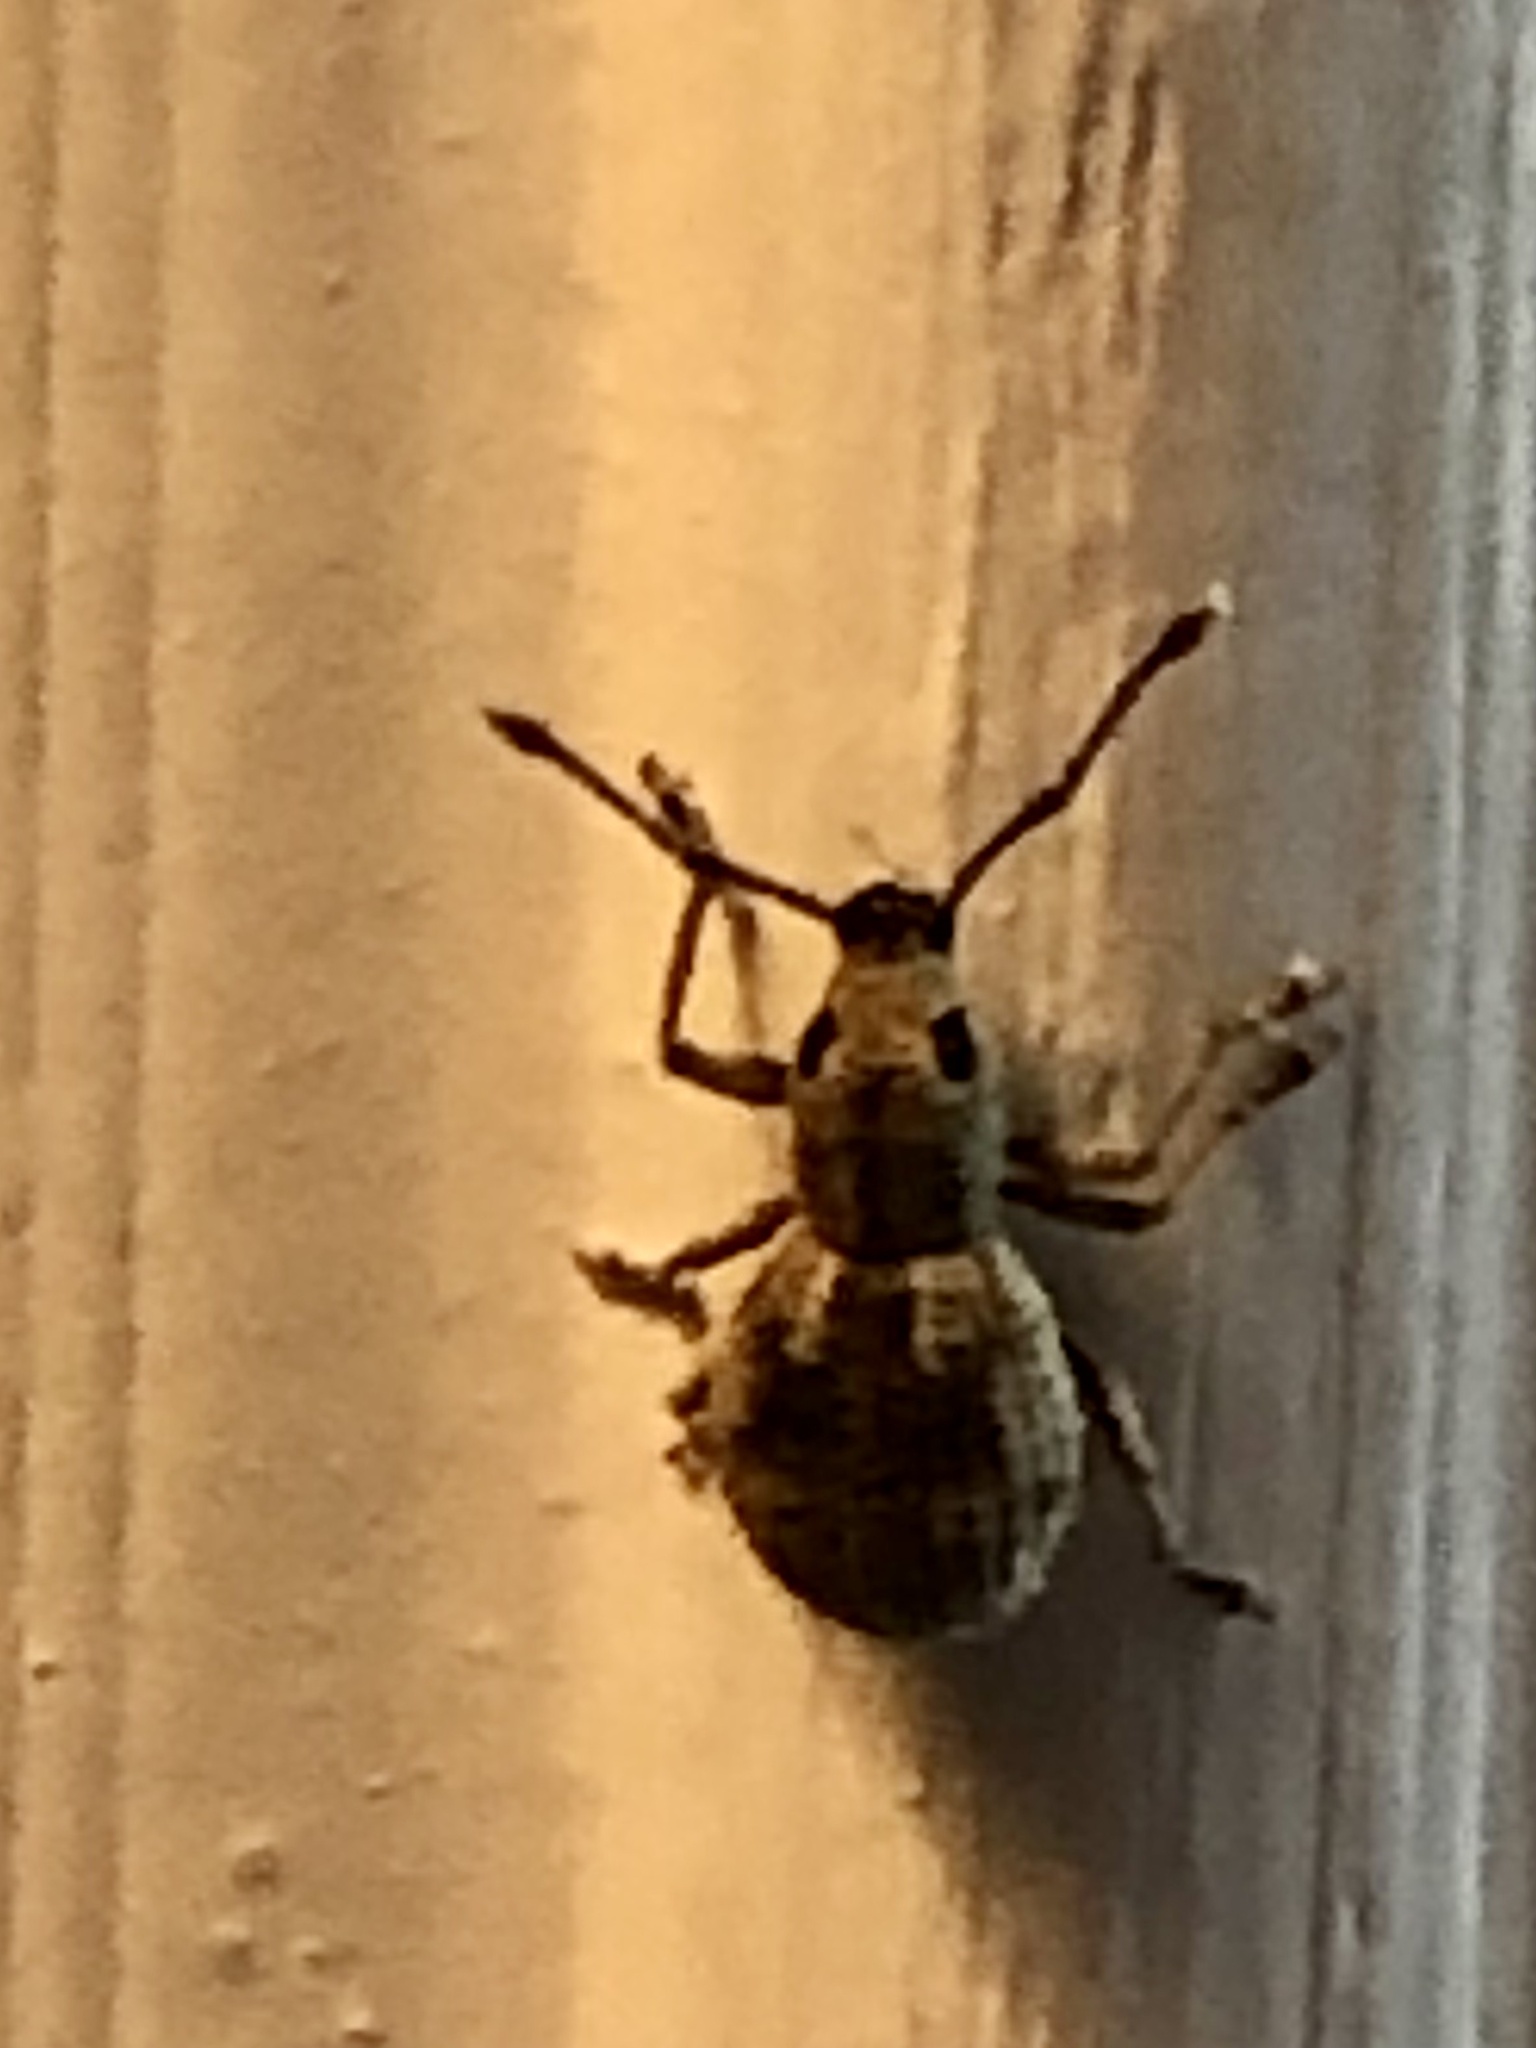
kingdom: Animalia
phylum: Arthropoda
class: Insecta
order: Coleoptera
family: Curculionidae
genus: Calomycterus
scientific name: Calomycterus setarius
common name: Weevil
